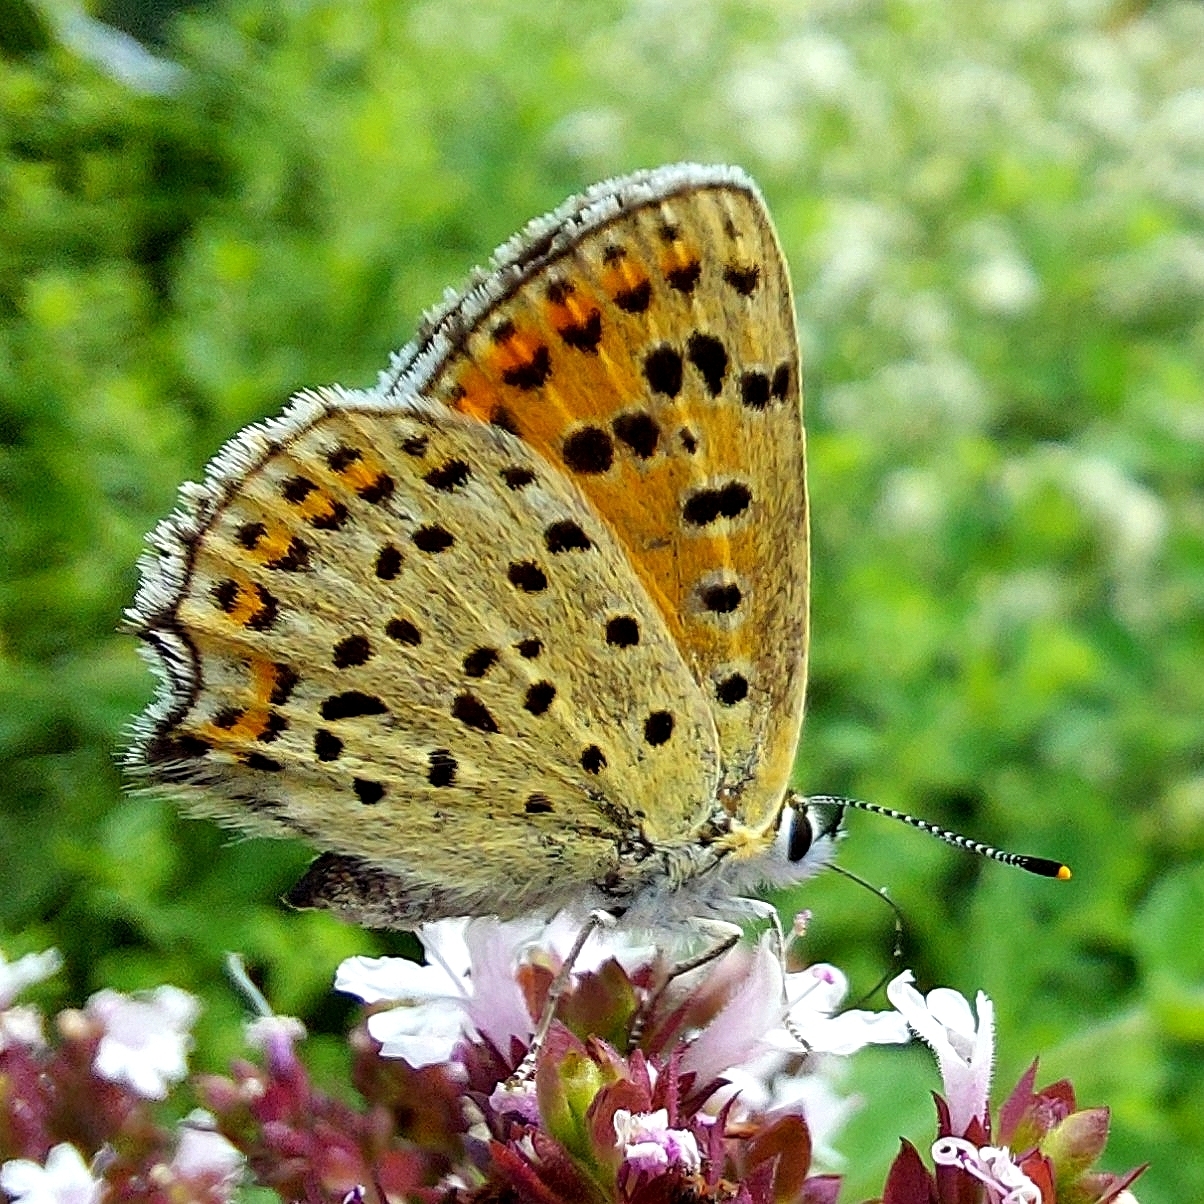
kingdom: Animalia
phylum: Arthropoda
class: Insecta
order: Lepidoptera
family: Lycaenidae
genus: Loweia
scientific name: Loweia tityrus
